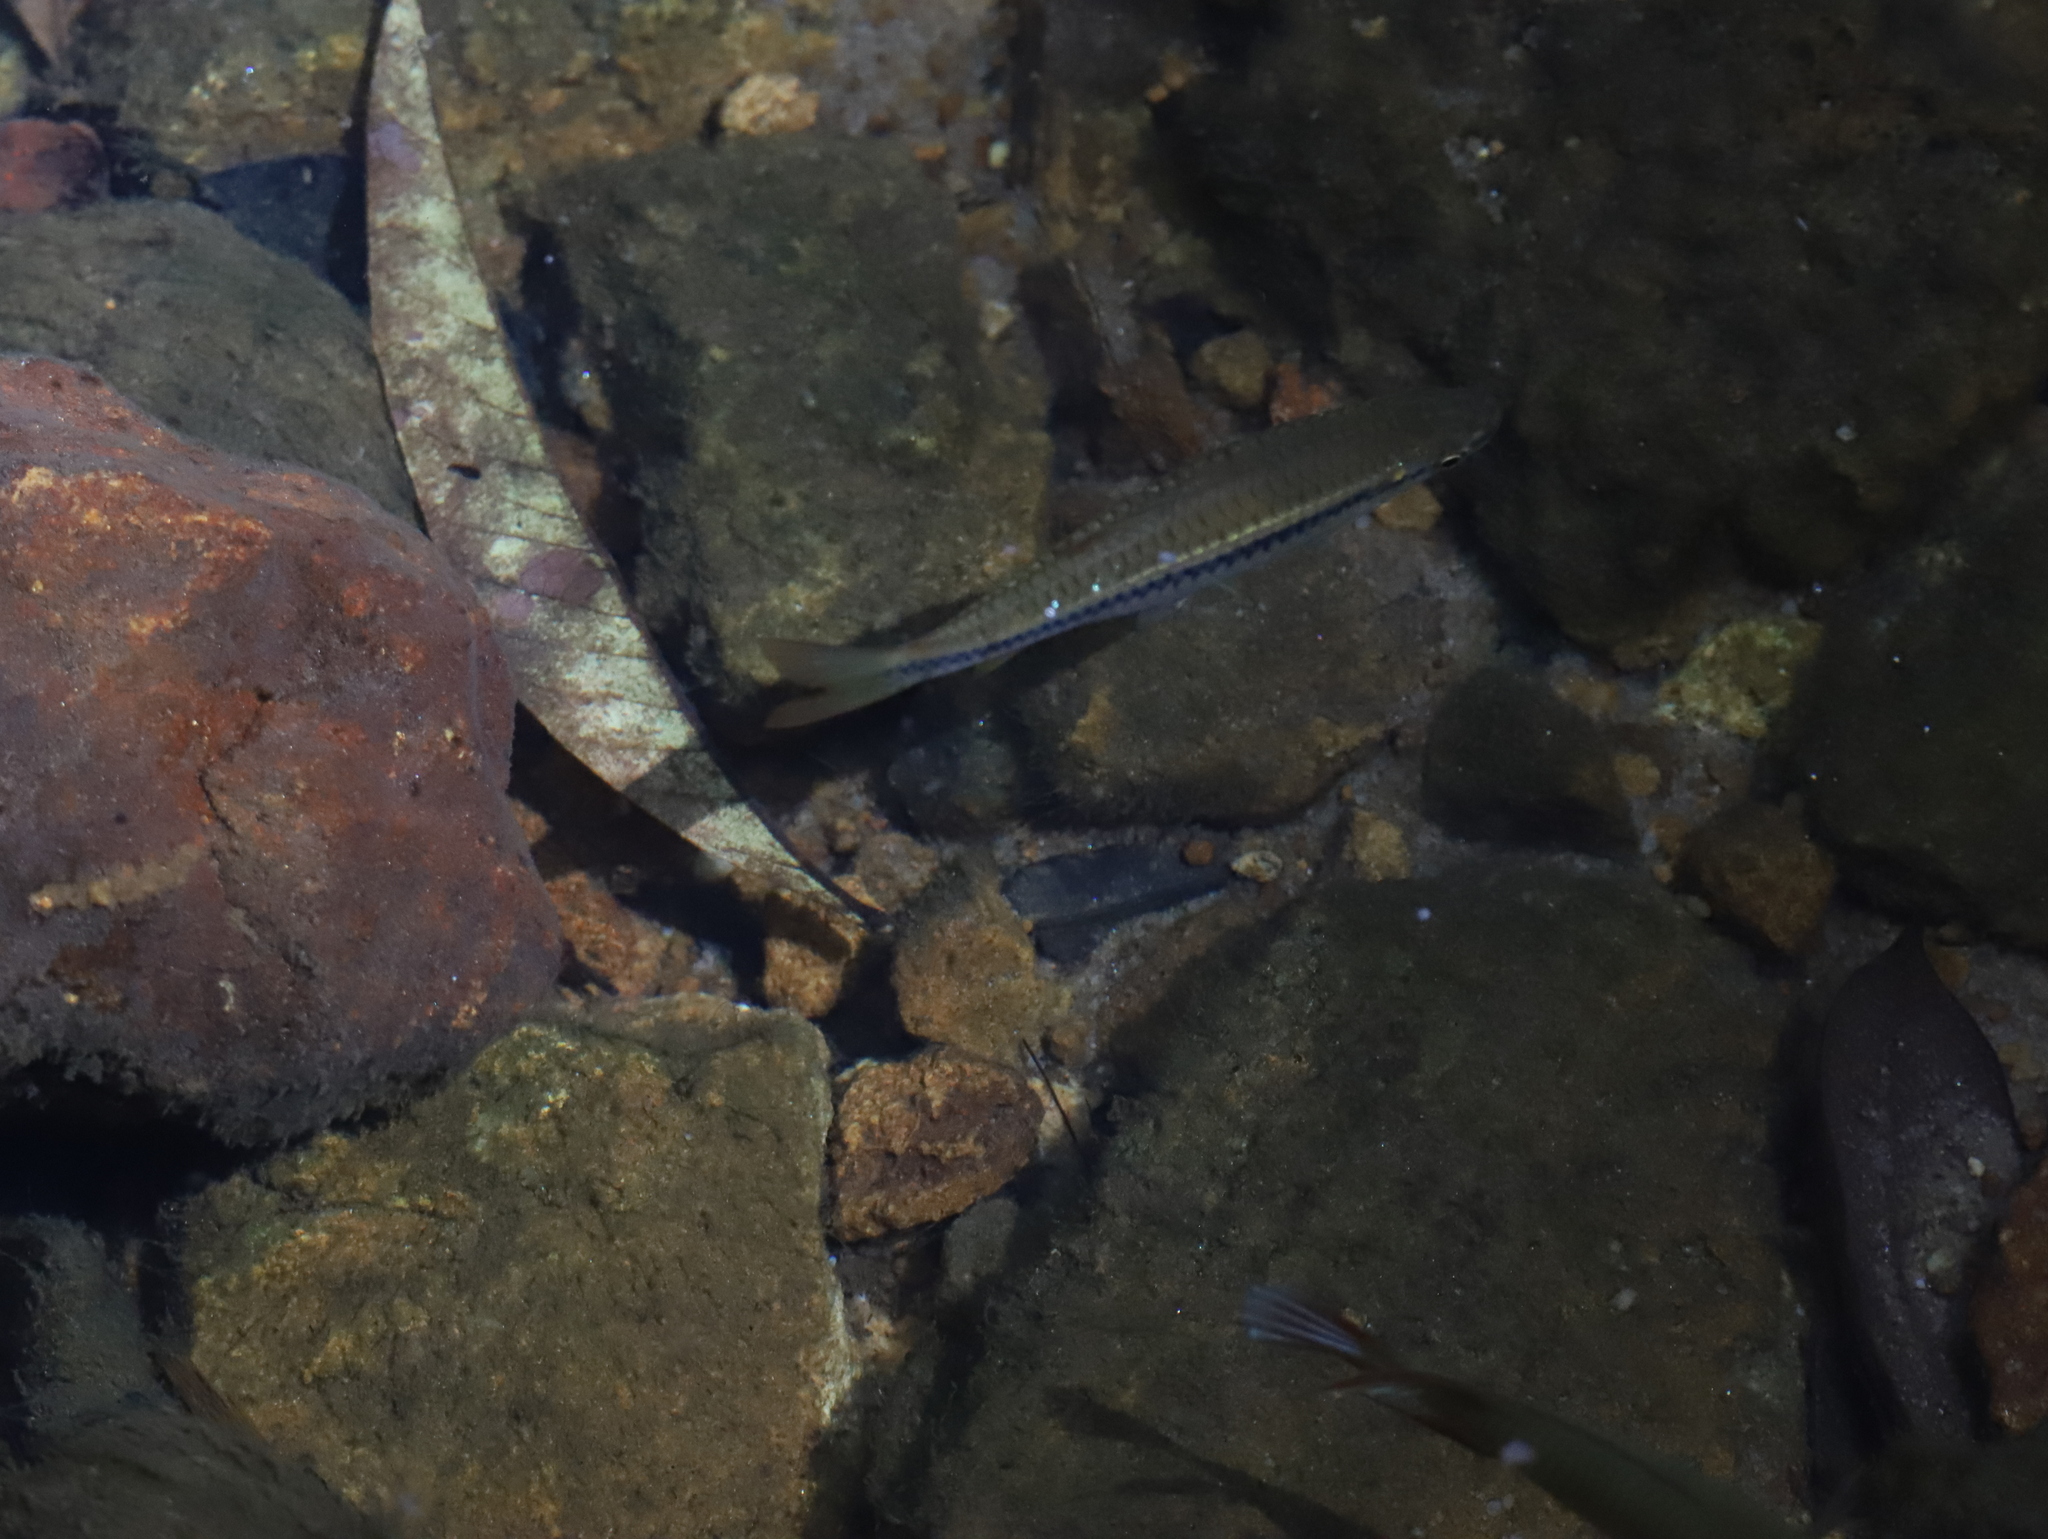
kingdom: Animalia
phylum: Chordata
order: Cypriniformes
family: Cyprinidae
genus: Rasbora
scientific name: Rasbora dandia
